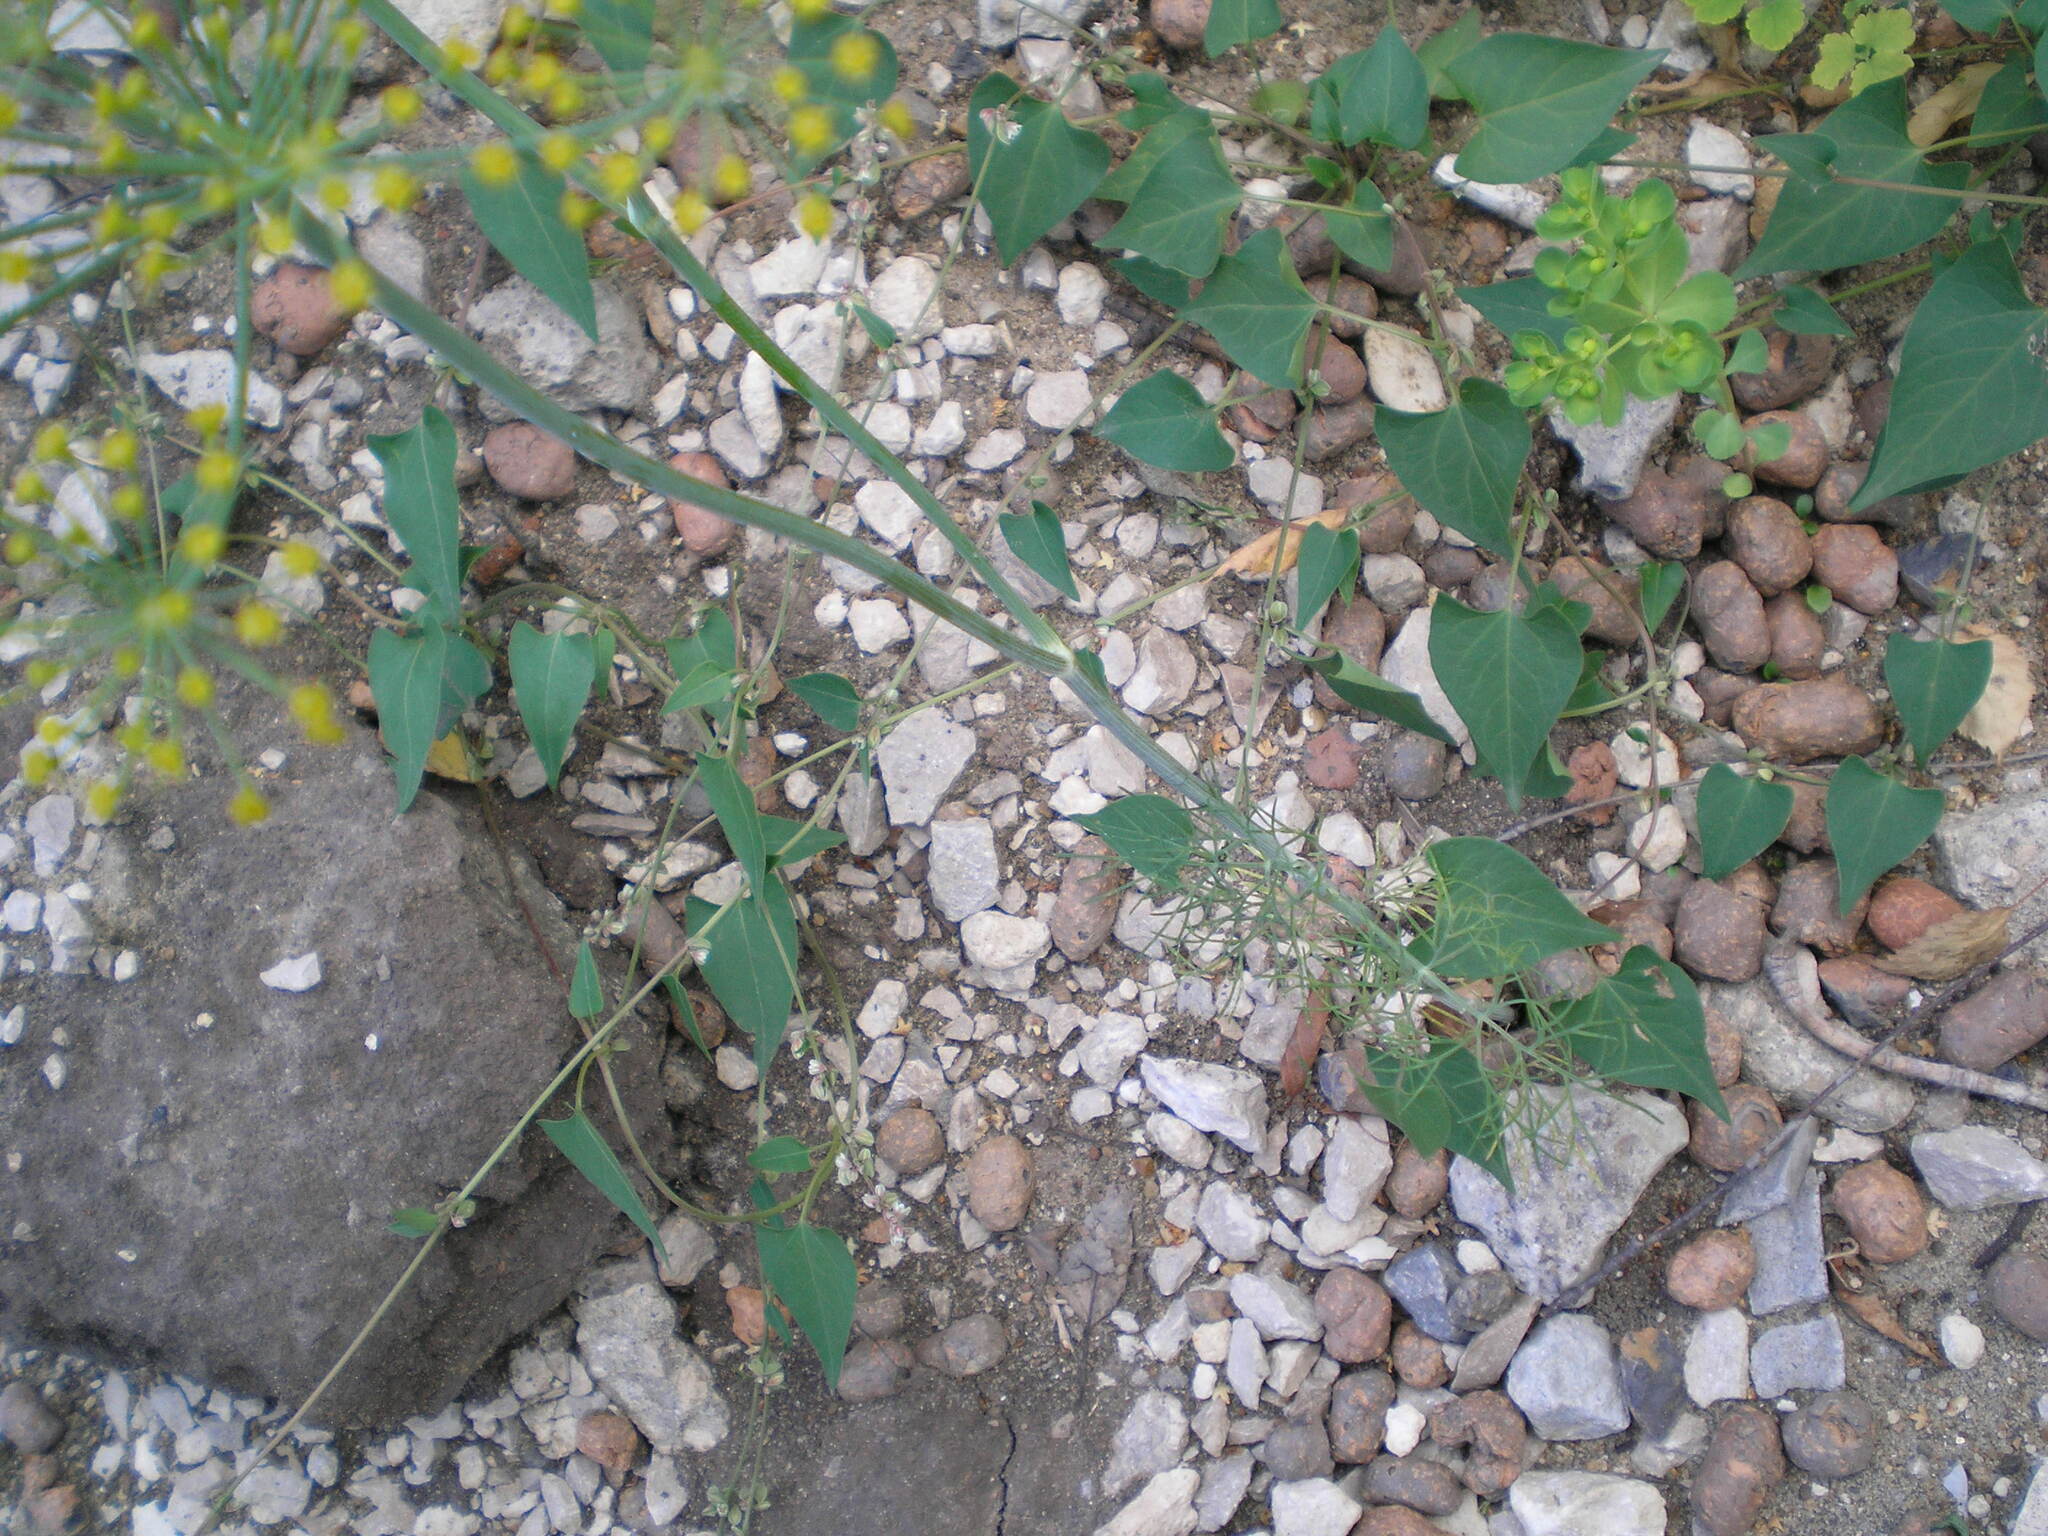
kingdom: Plantae
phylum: Tracheophyta
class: Magnoliopsida
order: Apiales
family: Apiaceae
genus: Anethum
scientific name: Anethum graveolens
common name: Dill
